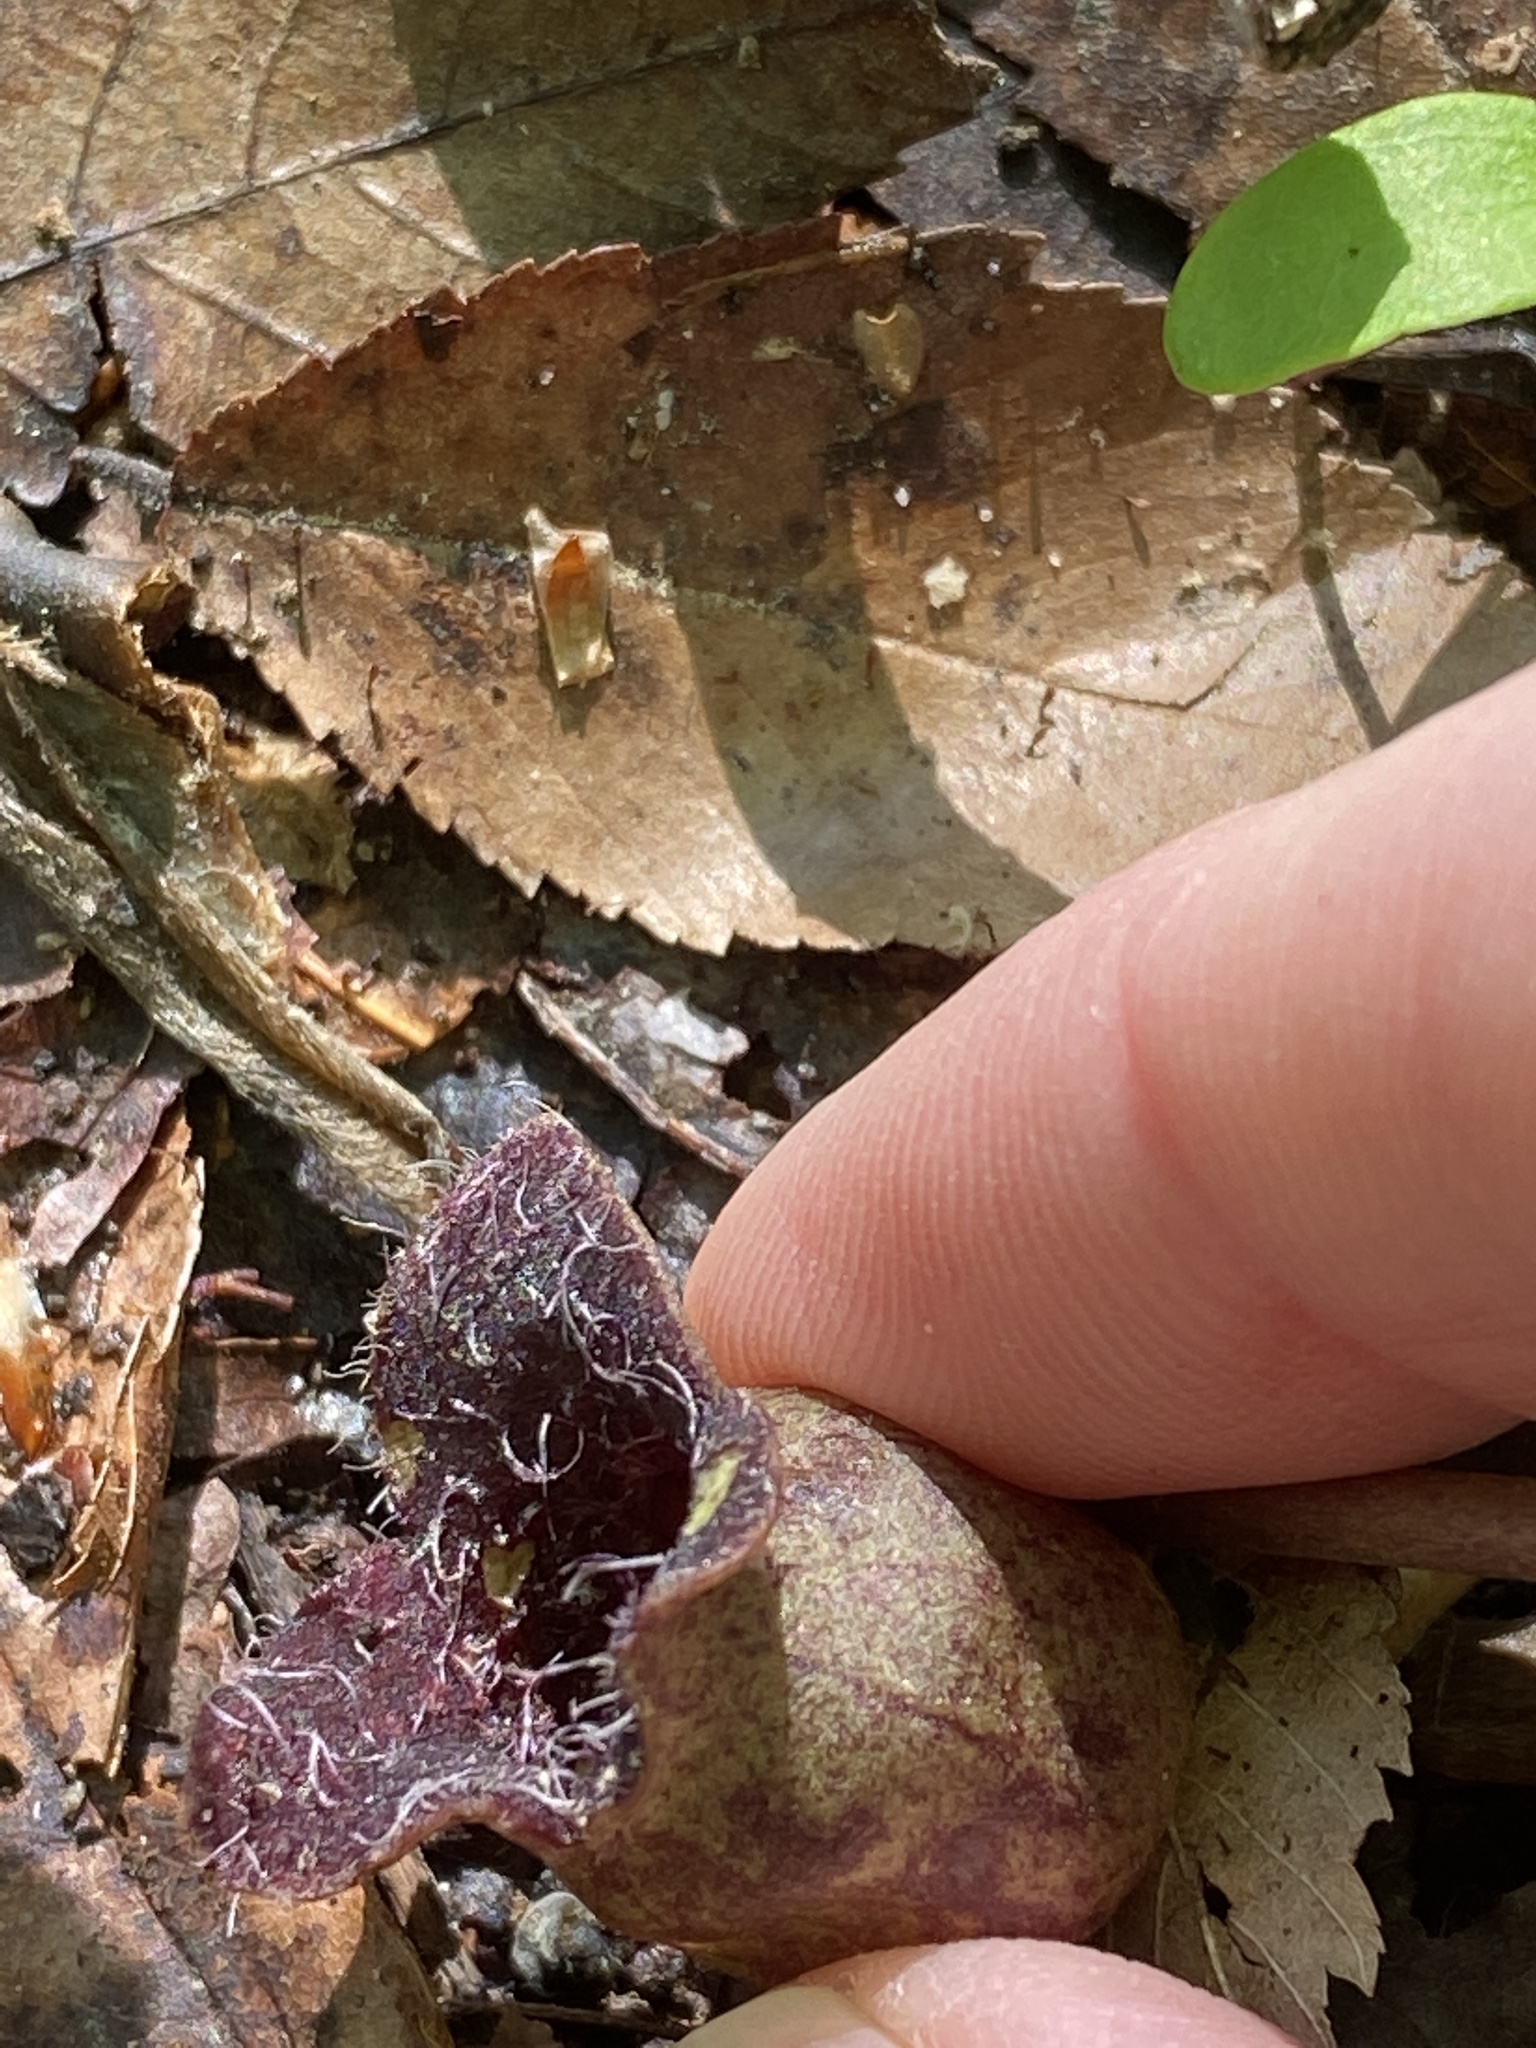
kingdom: Plantae
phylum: Tracheophyta
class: Magnoliopsida
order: Piperales
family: Aristolochiaceae
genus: Hexastylis
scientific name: Hexastylis lewisii
